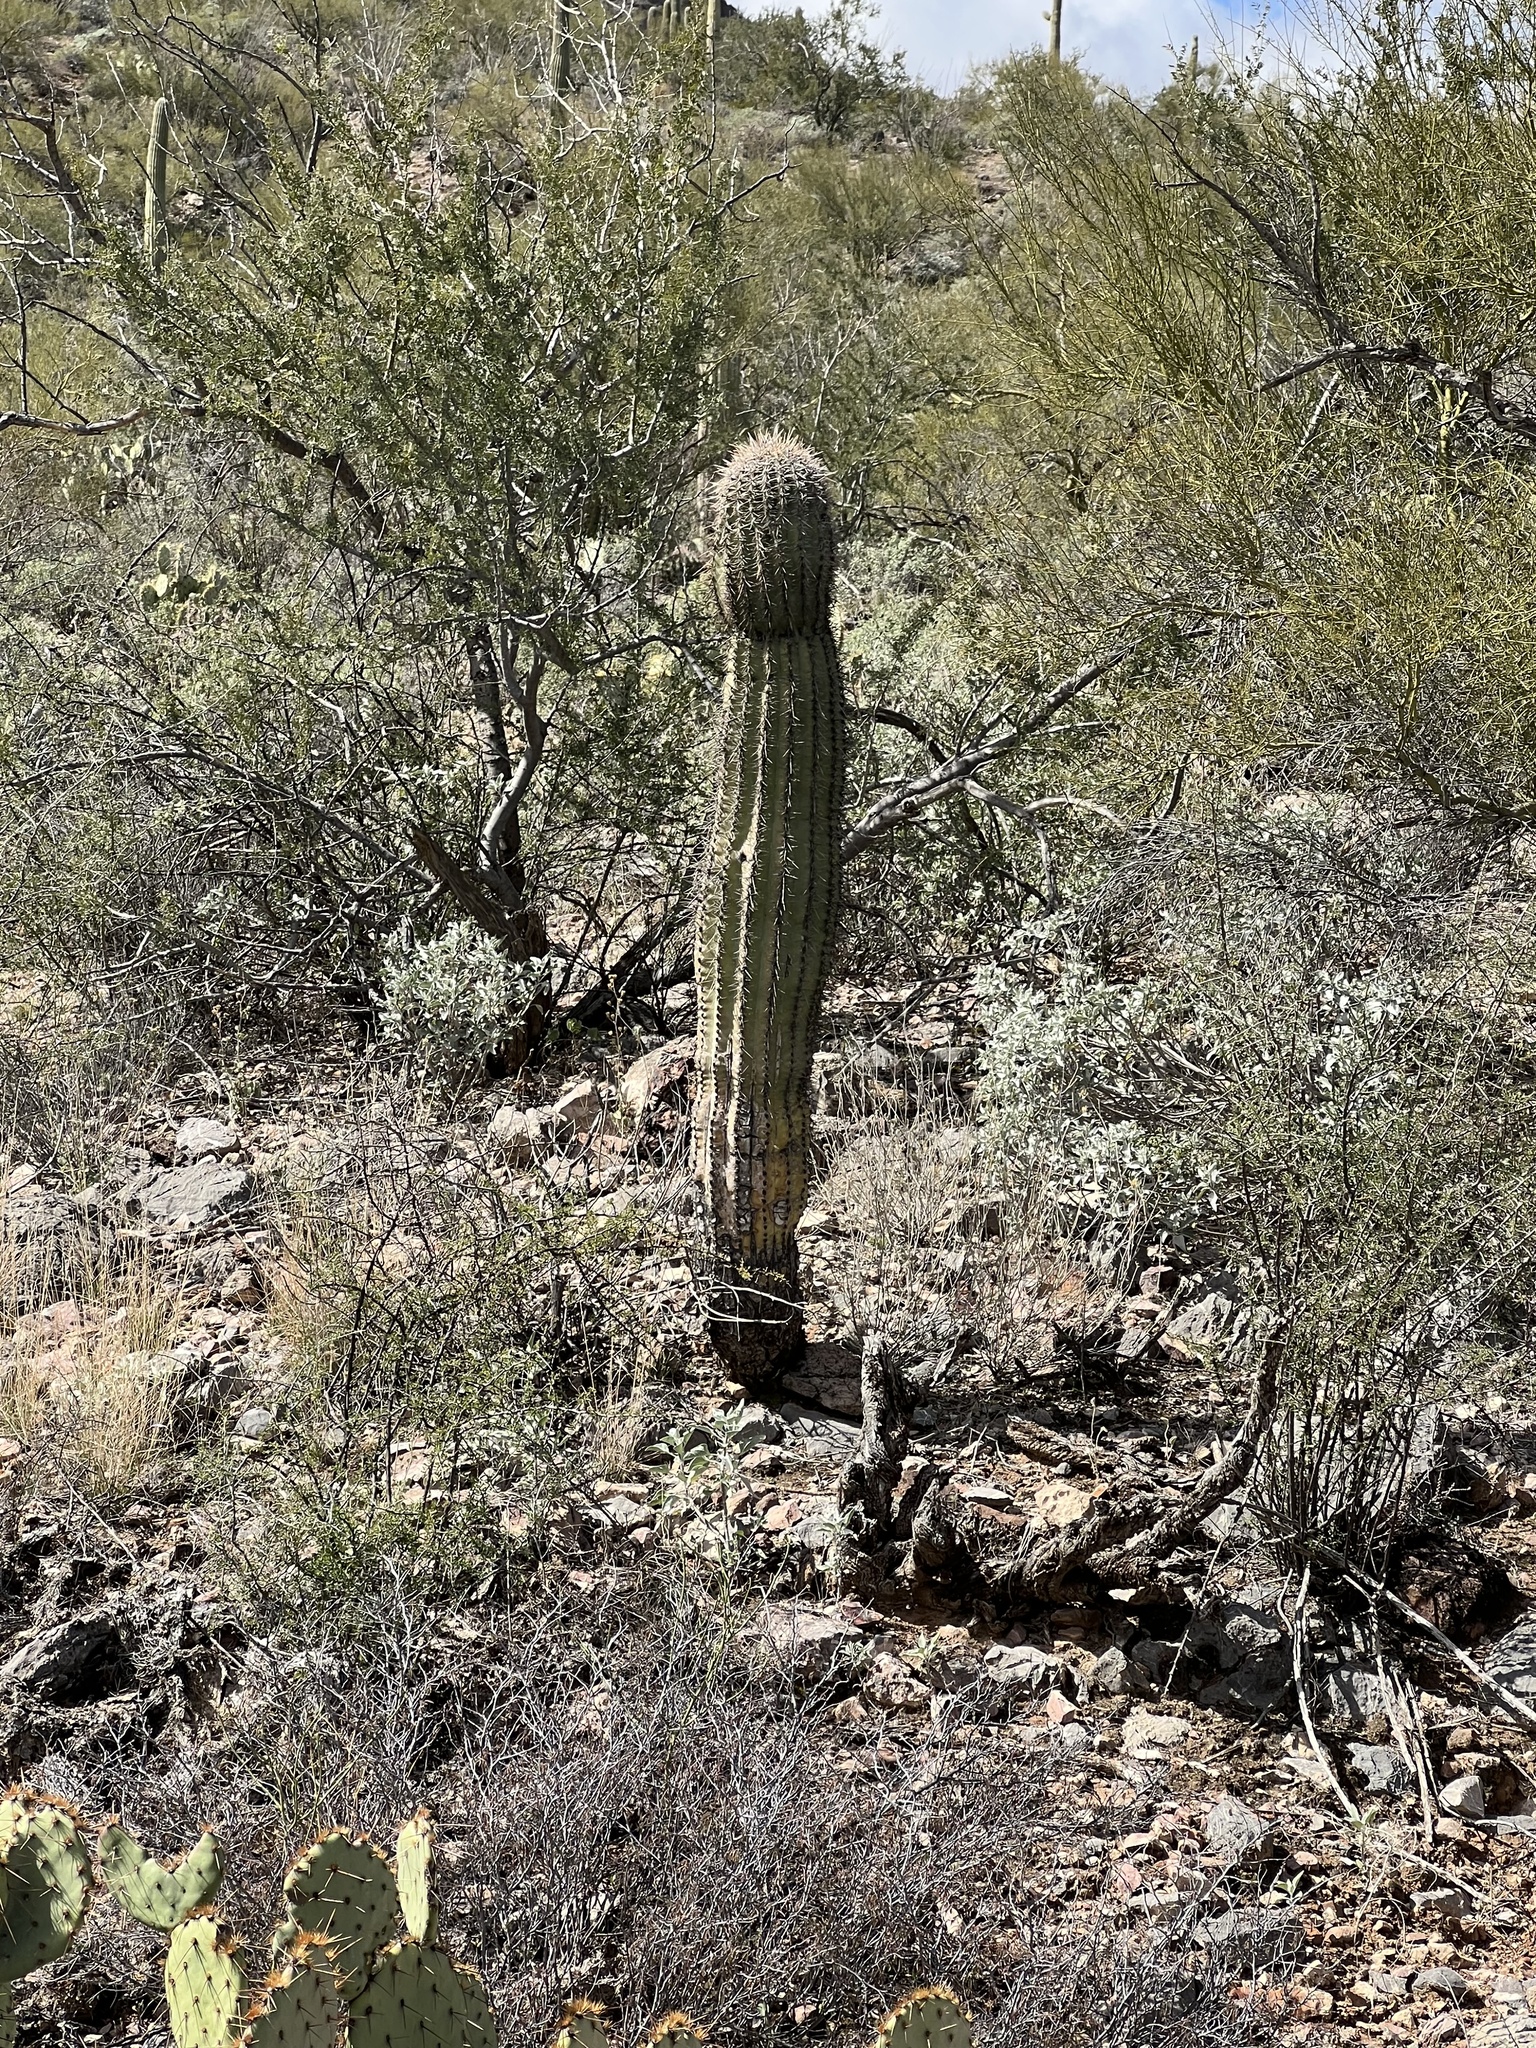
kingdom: Plantae
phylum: Tracheophyta
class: Magnoliopsida
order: Caryophyllales
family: Cactaceae
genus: Carnegiea
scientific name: Carnegiea gigantea
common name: Saguaro
